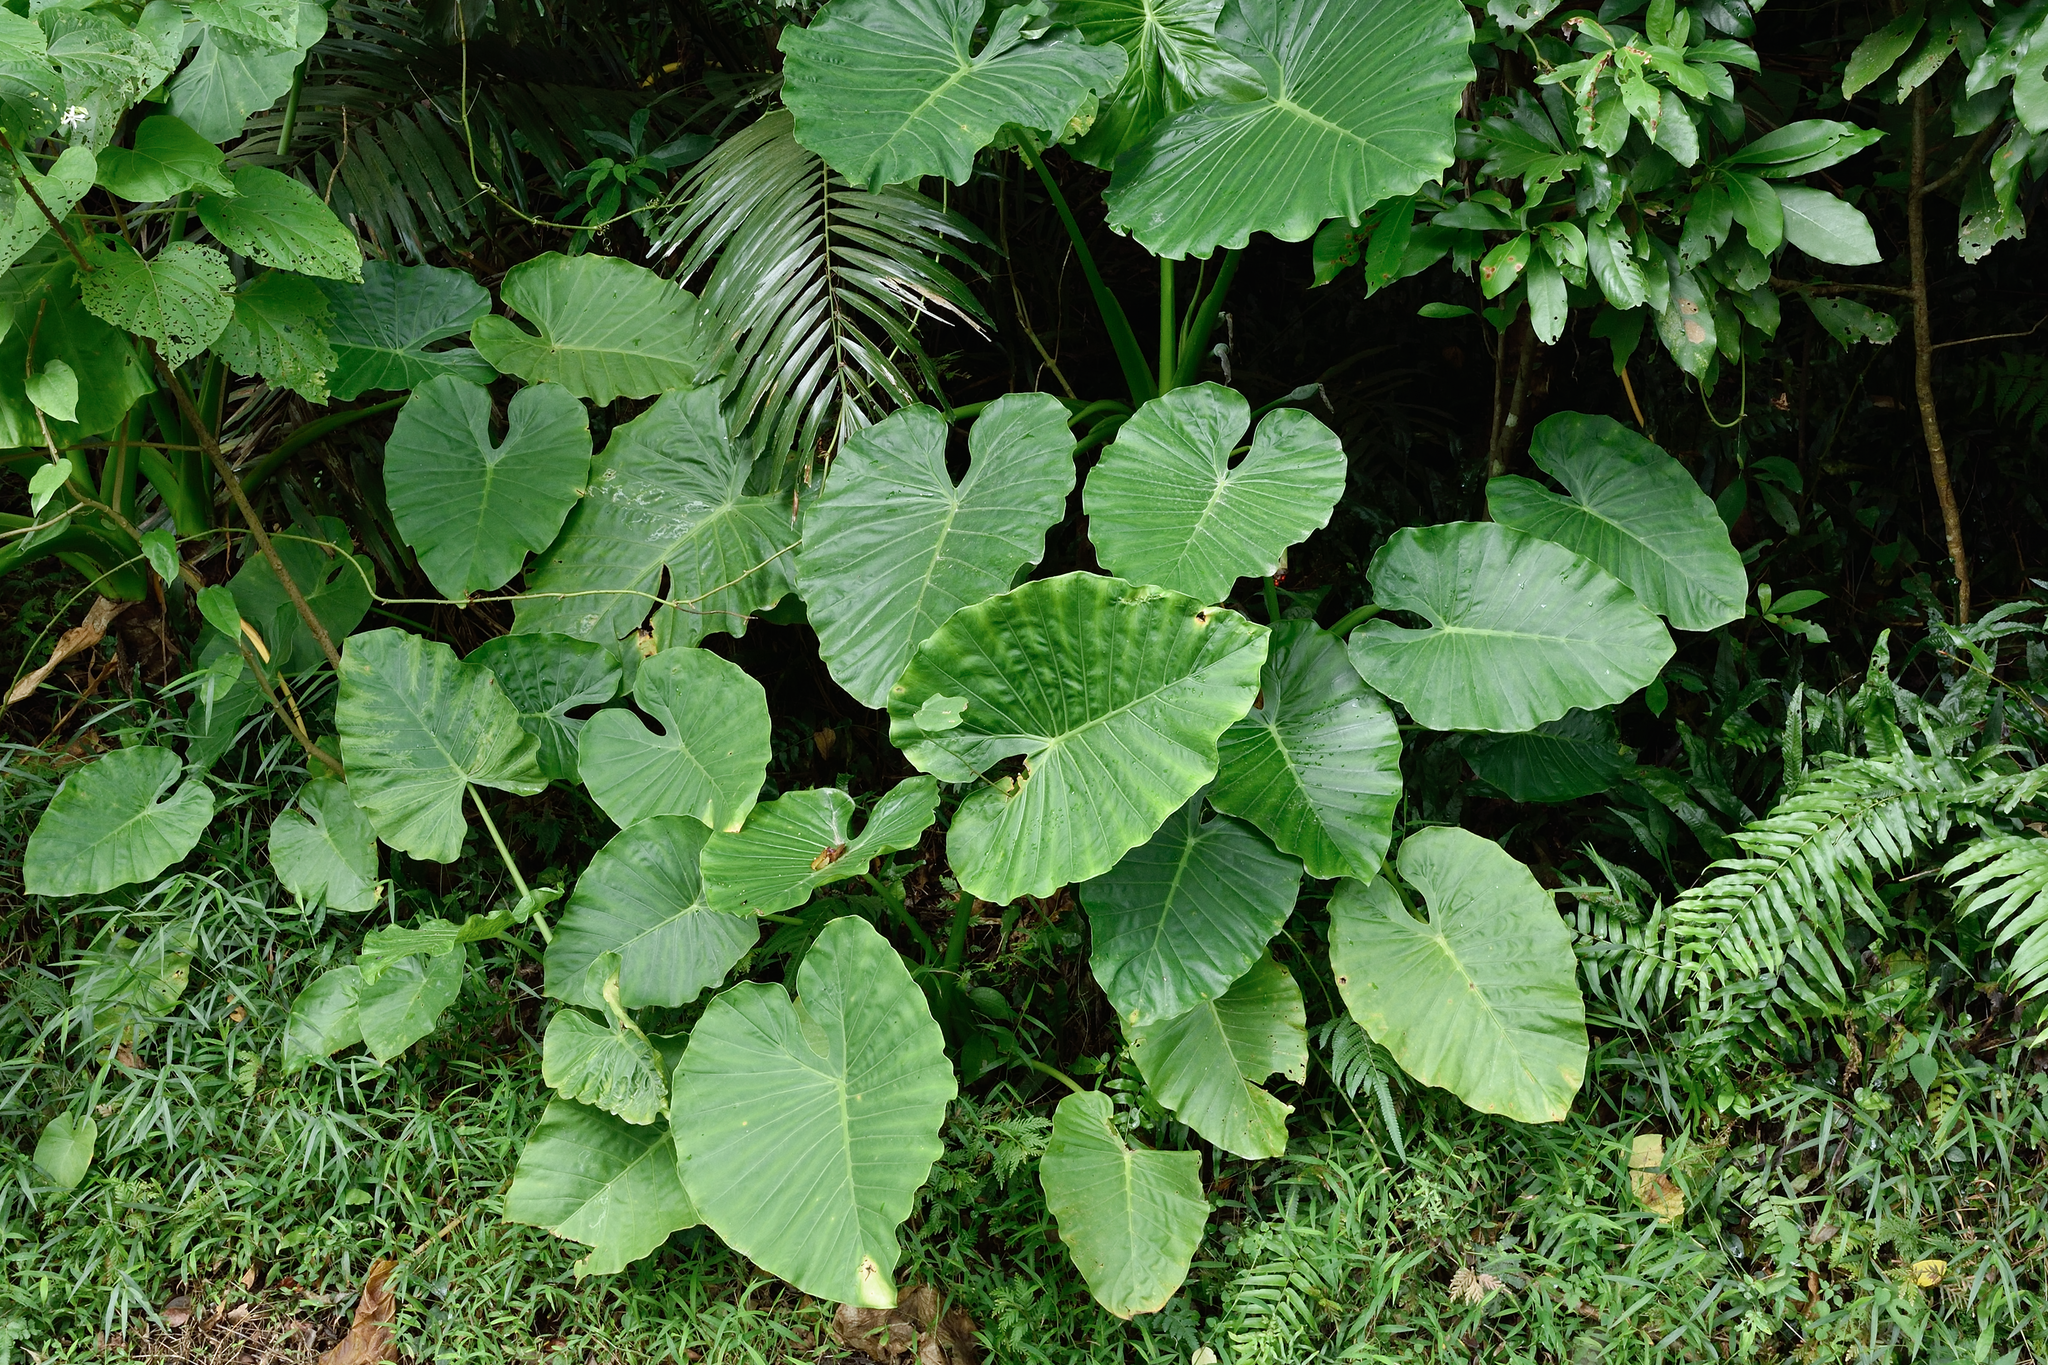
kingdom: Plantae
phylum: Tracheophyta
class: Liliopsida
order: Alismatales
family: Araceae
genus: Alocasia
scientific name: Alocasia odora
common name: Asian taro
